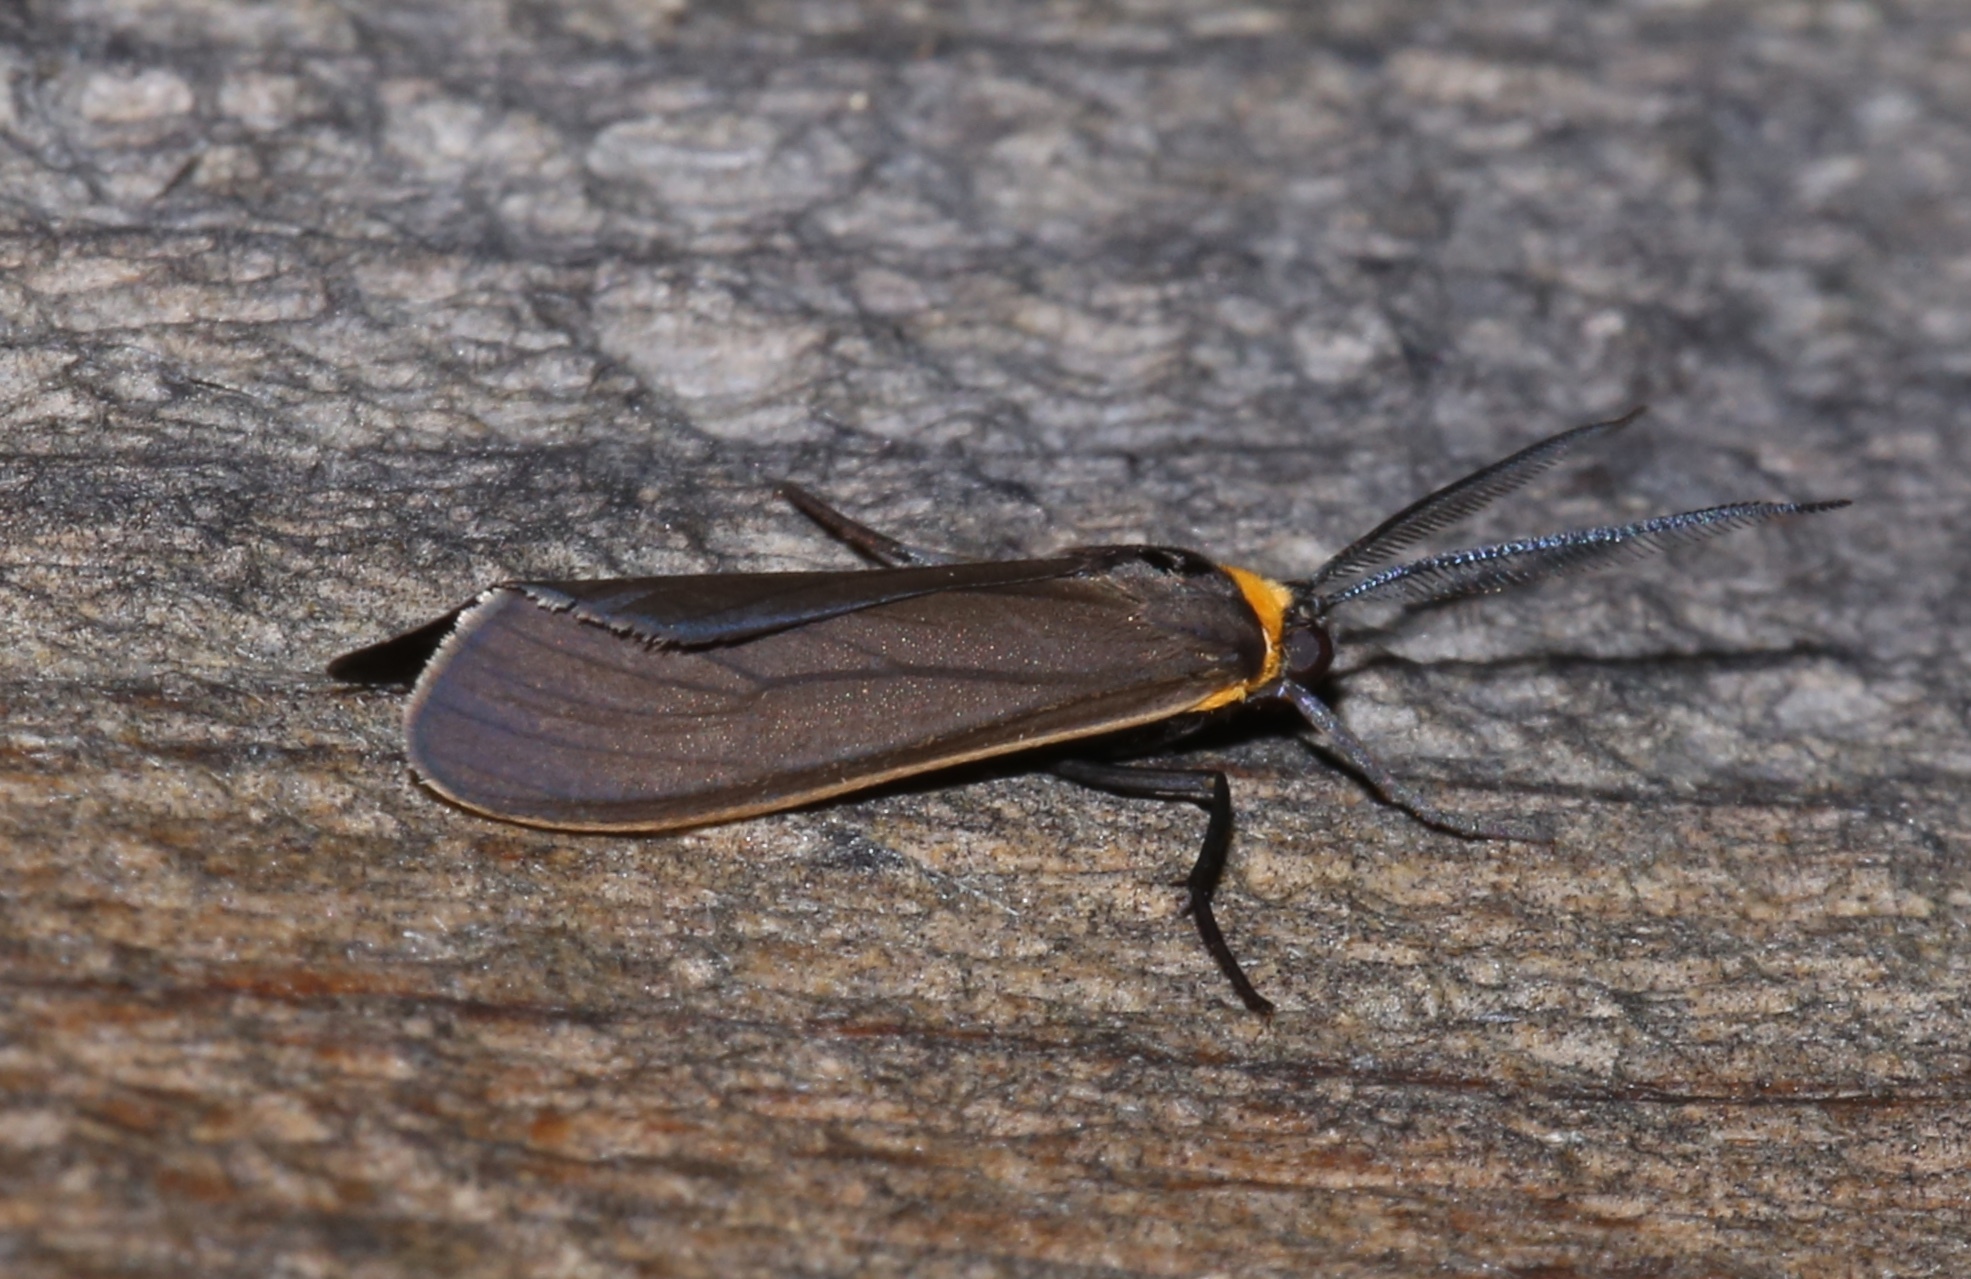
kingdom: Animalia
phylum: Arthropoda
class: Insecta
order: Lepidoptera
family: Erebidae
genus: Cisseps
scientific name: Cisseps fulvicollis
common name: Yellow-collared scape moth
